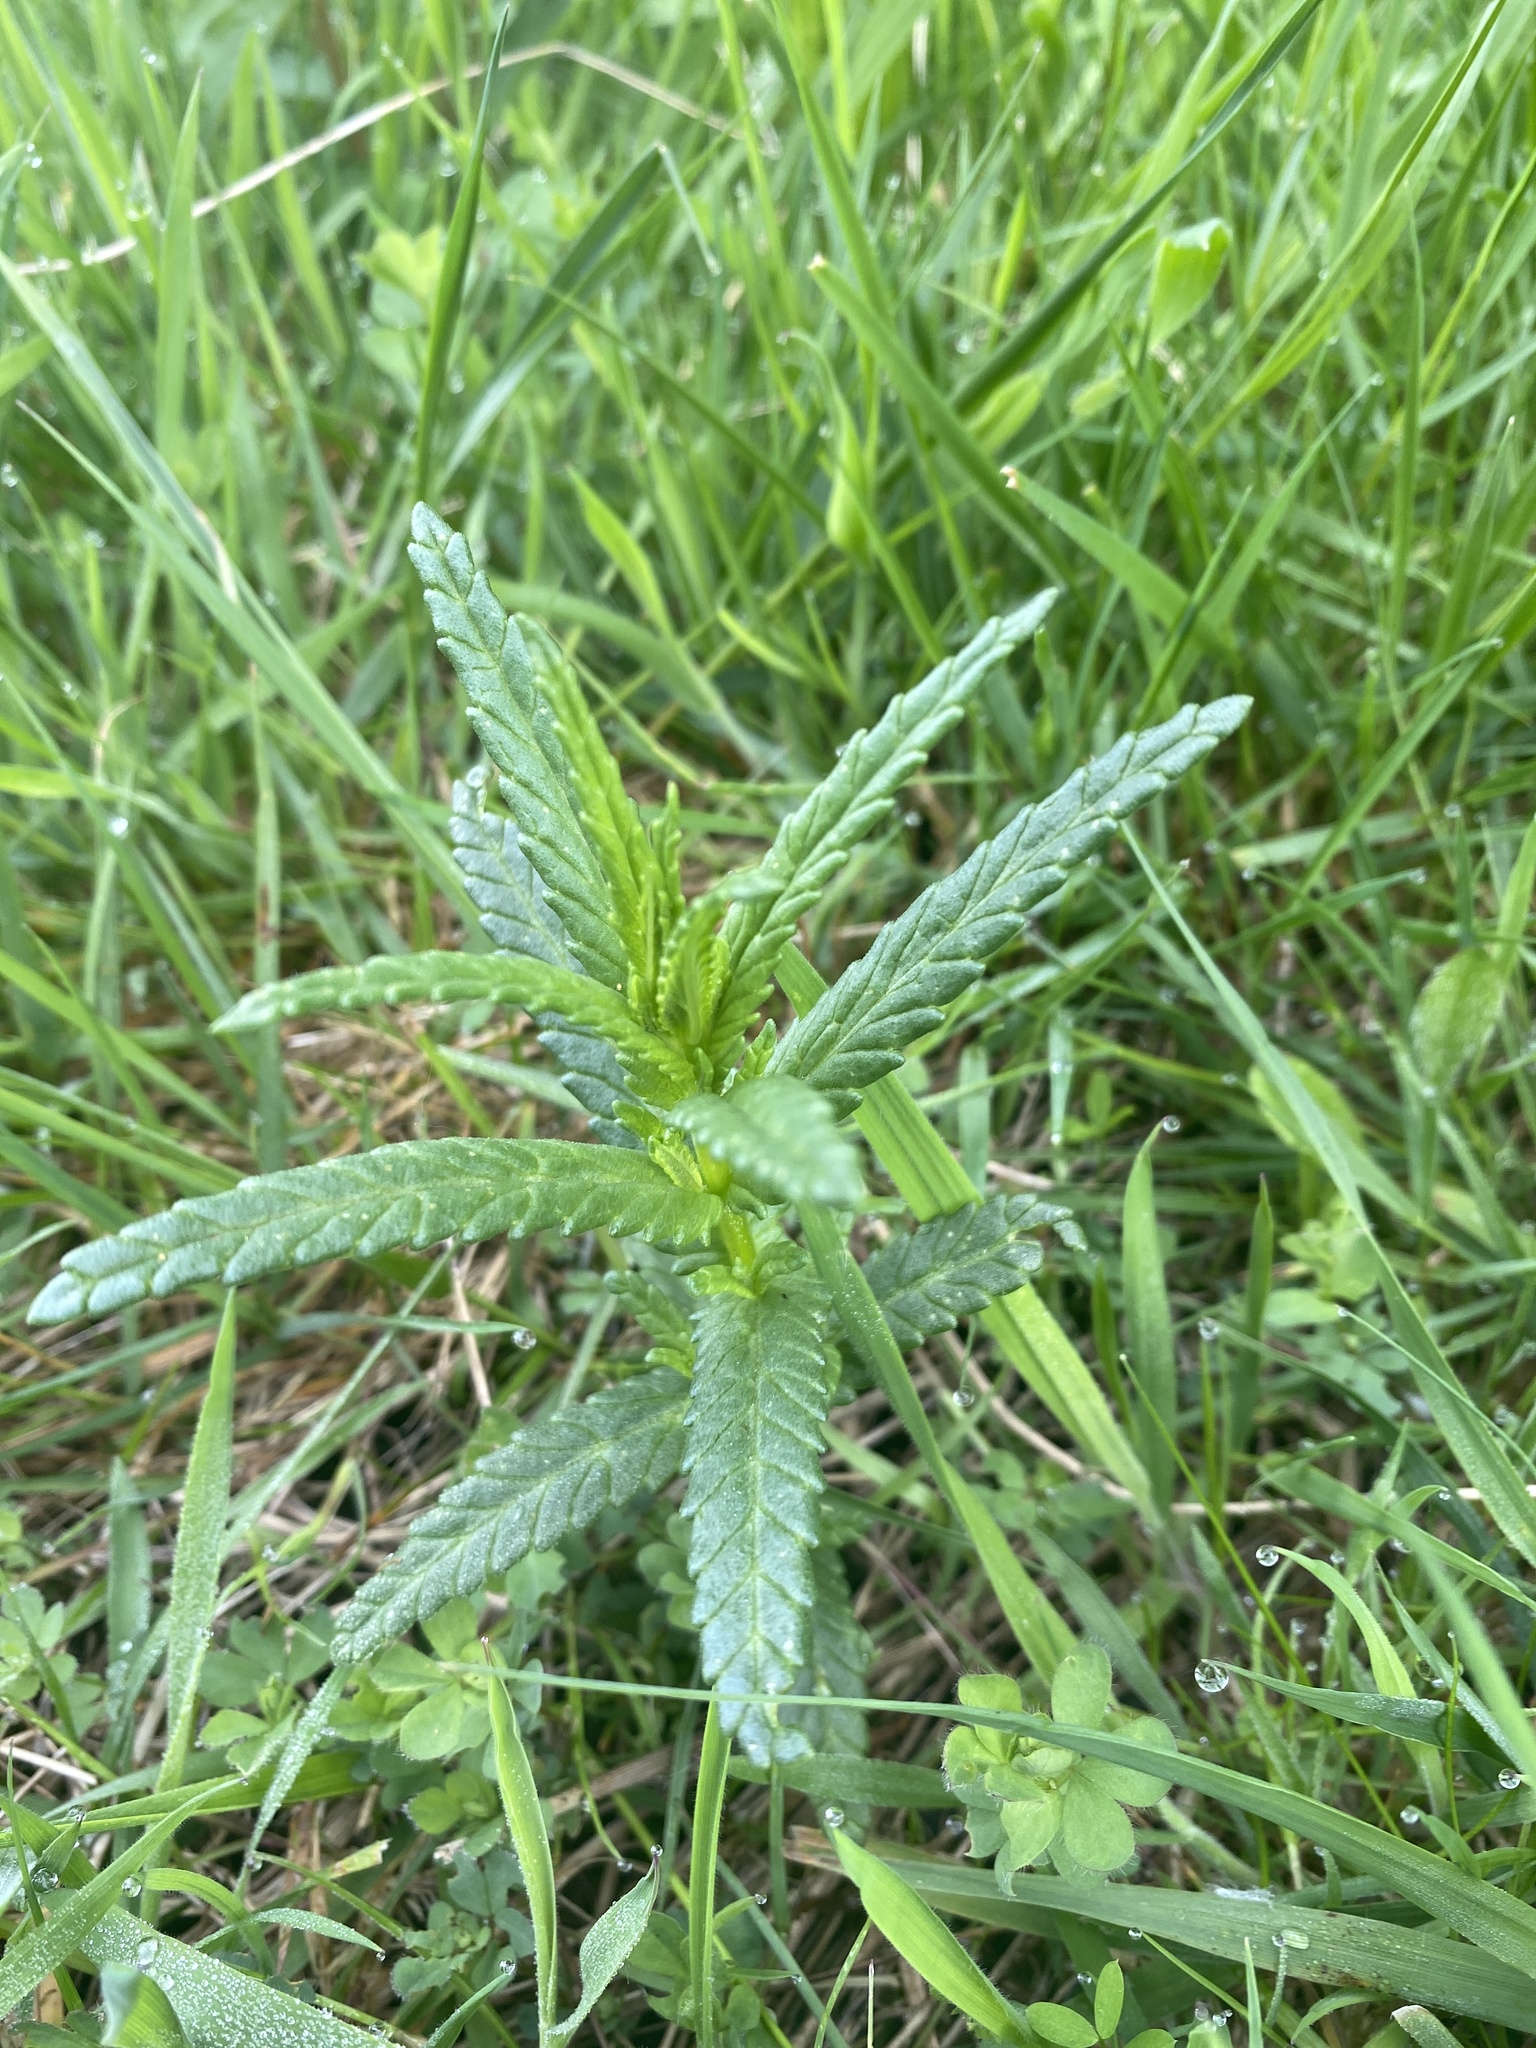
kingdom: Plantae
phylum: Tracheophyta
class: Magnoliopsida
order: Lamiales
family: Orobanchaceae
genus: Rhinanthus
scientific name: Rhinanthus minor
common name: Yellow-rattle
